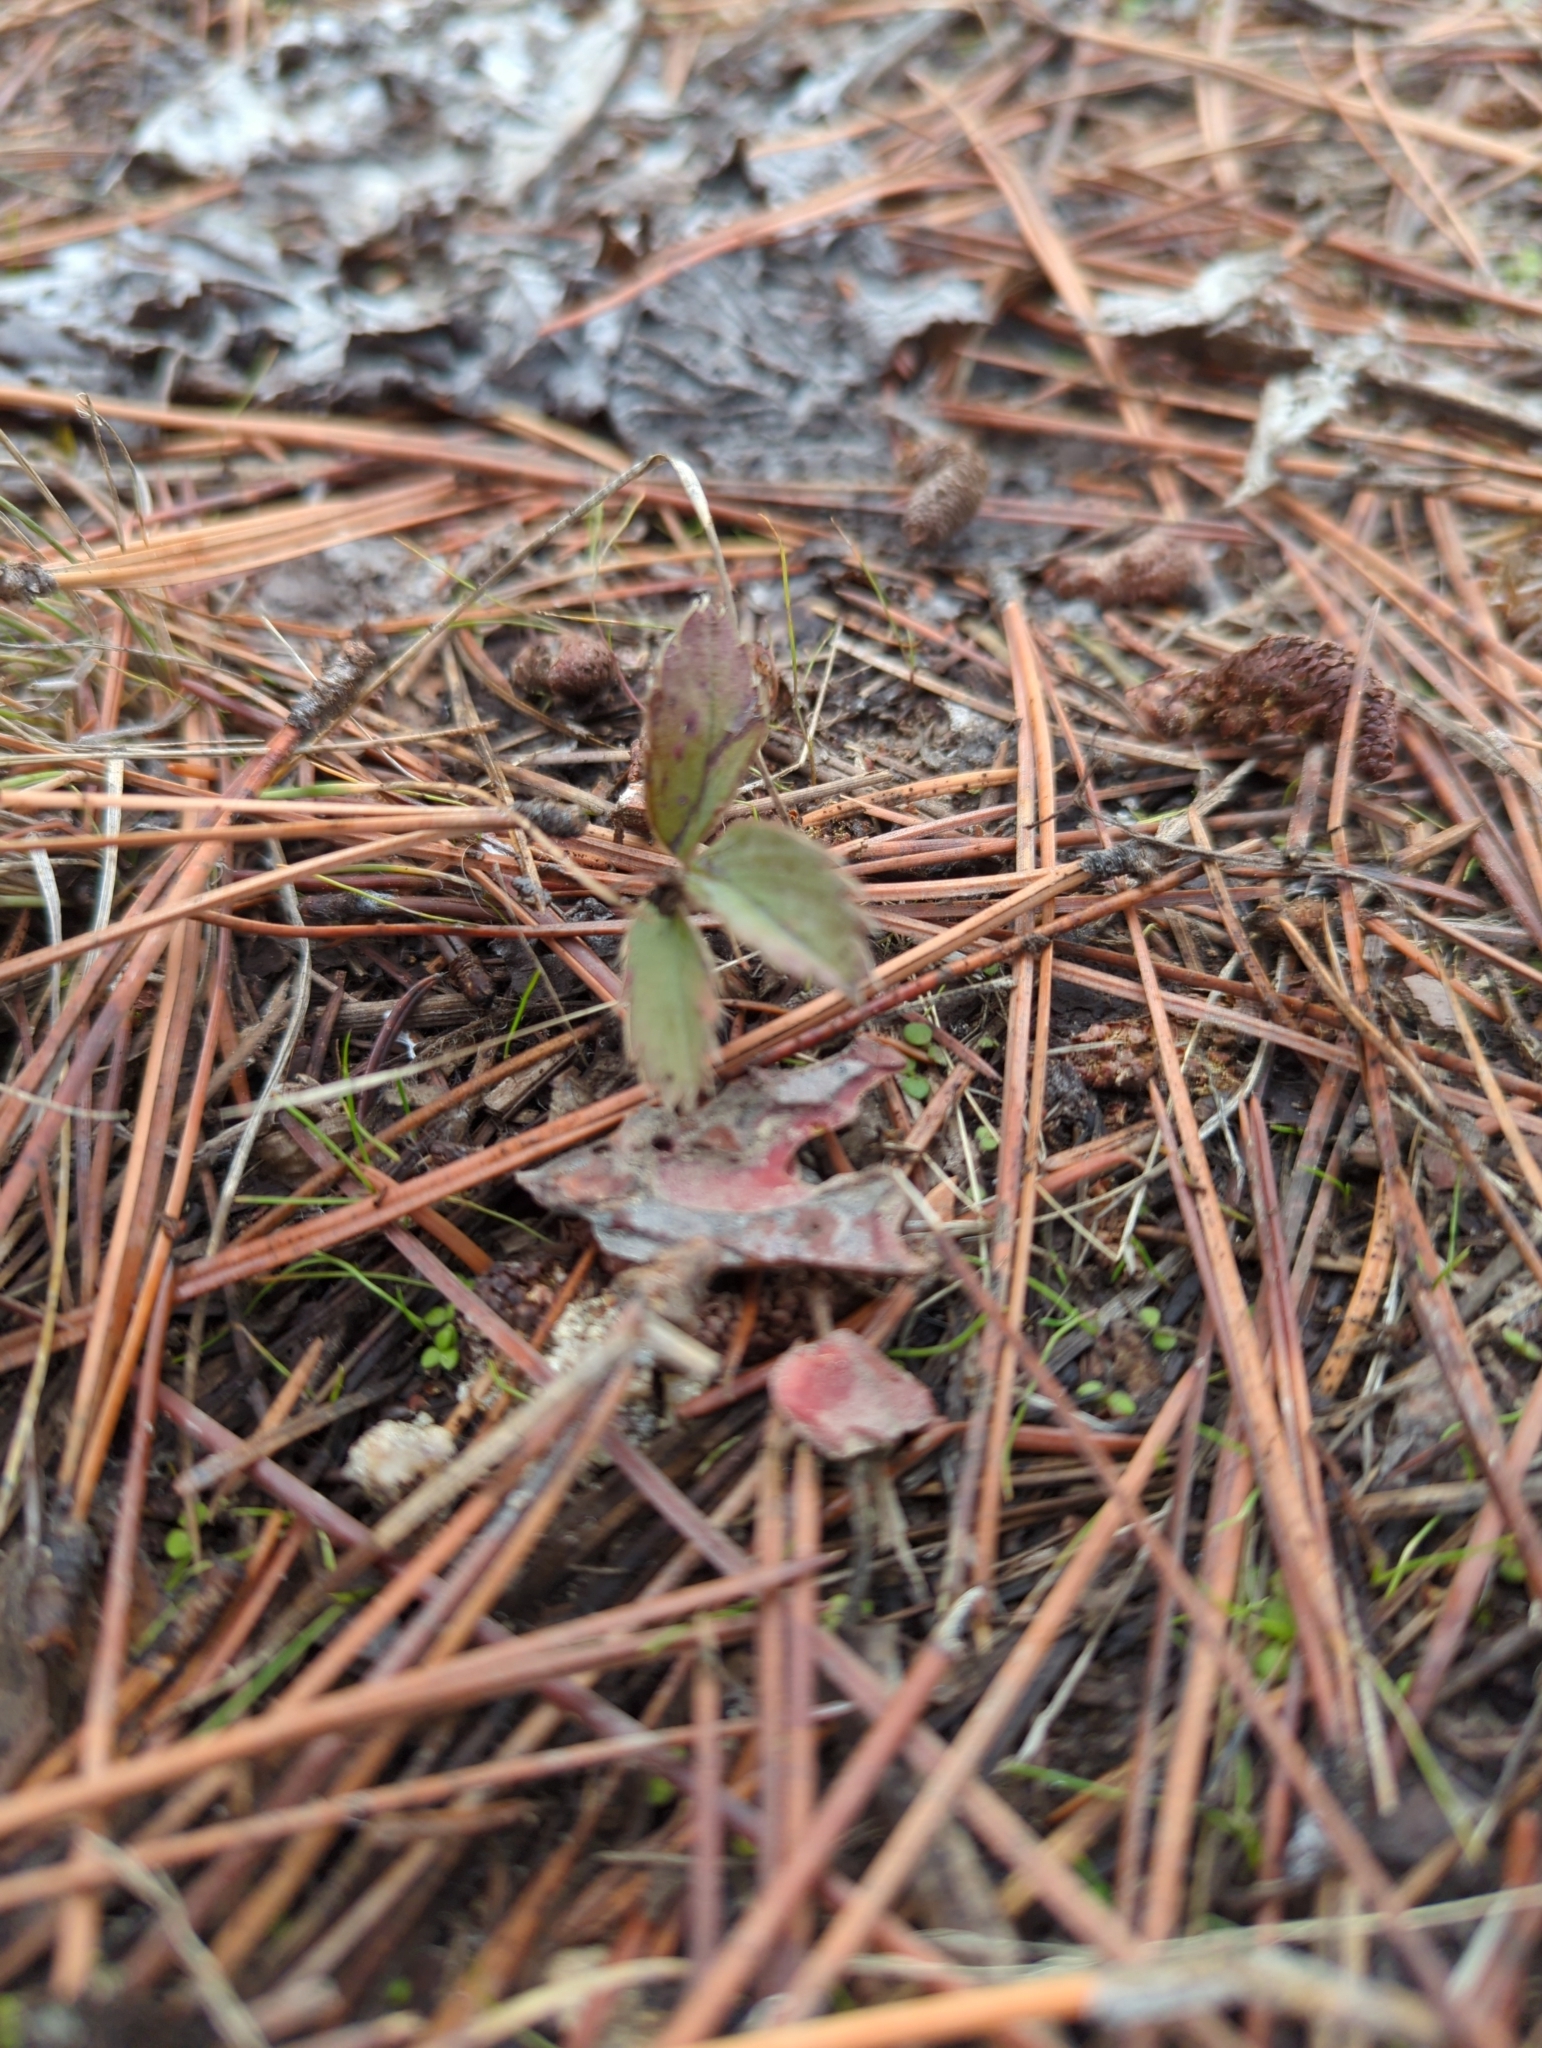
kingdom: Plantae
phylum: Tracheophyta
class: Magnoliopsida
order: Rosales
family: Rosaceae
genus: Fragaria
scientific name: Fragaria virginiana
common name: Thickleaved wild strawberry
